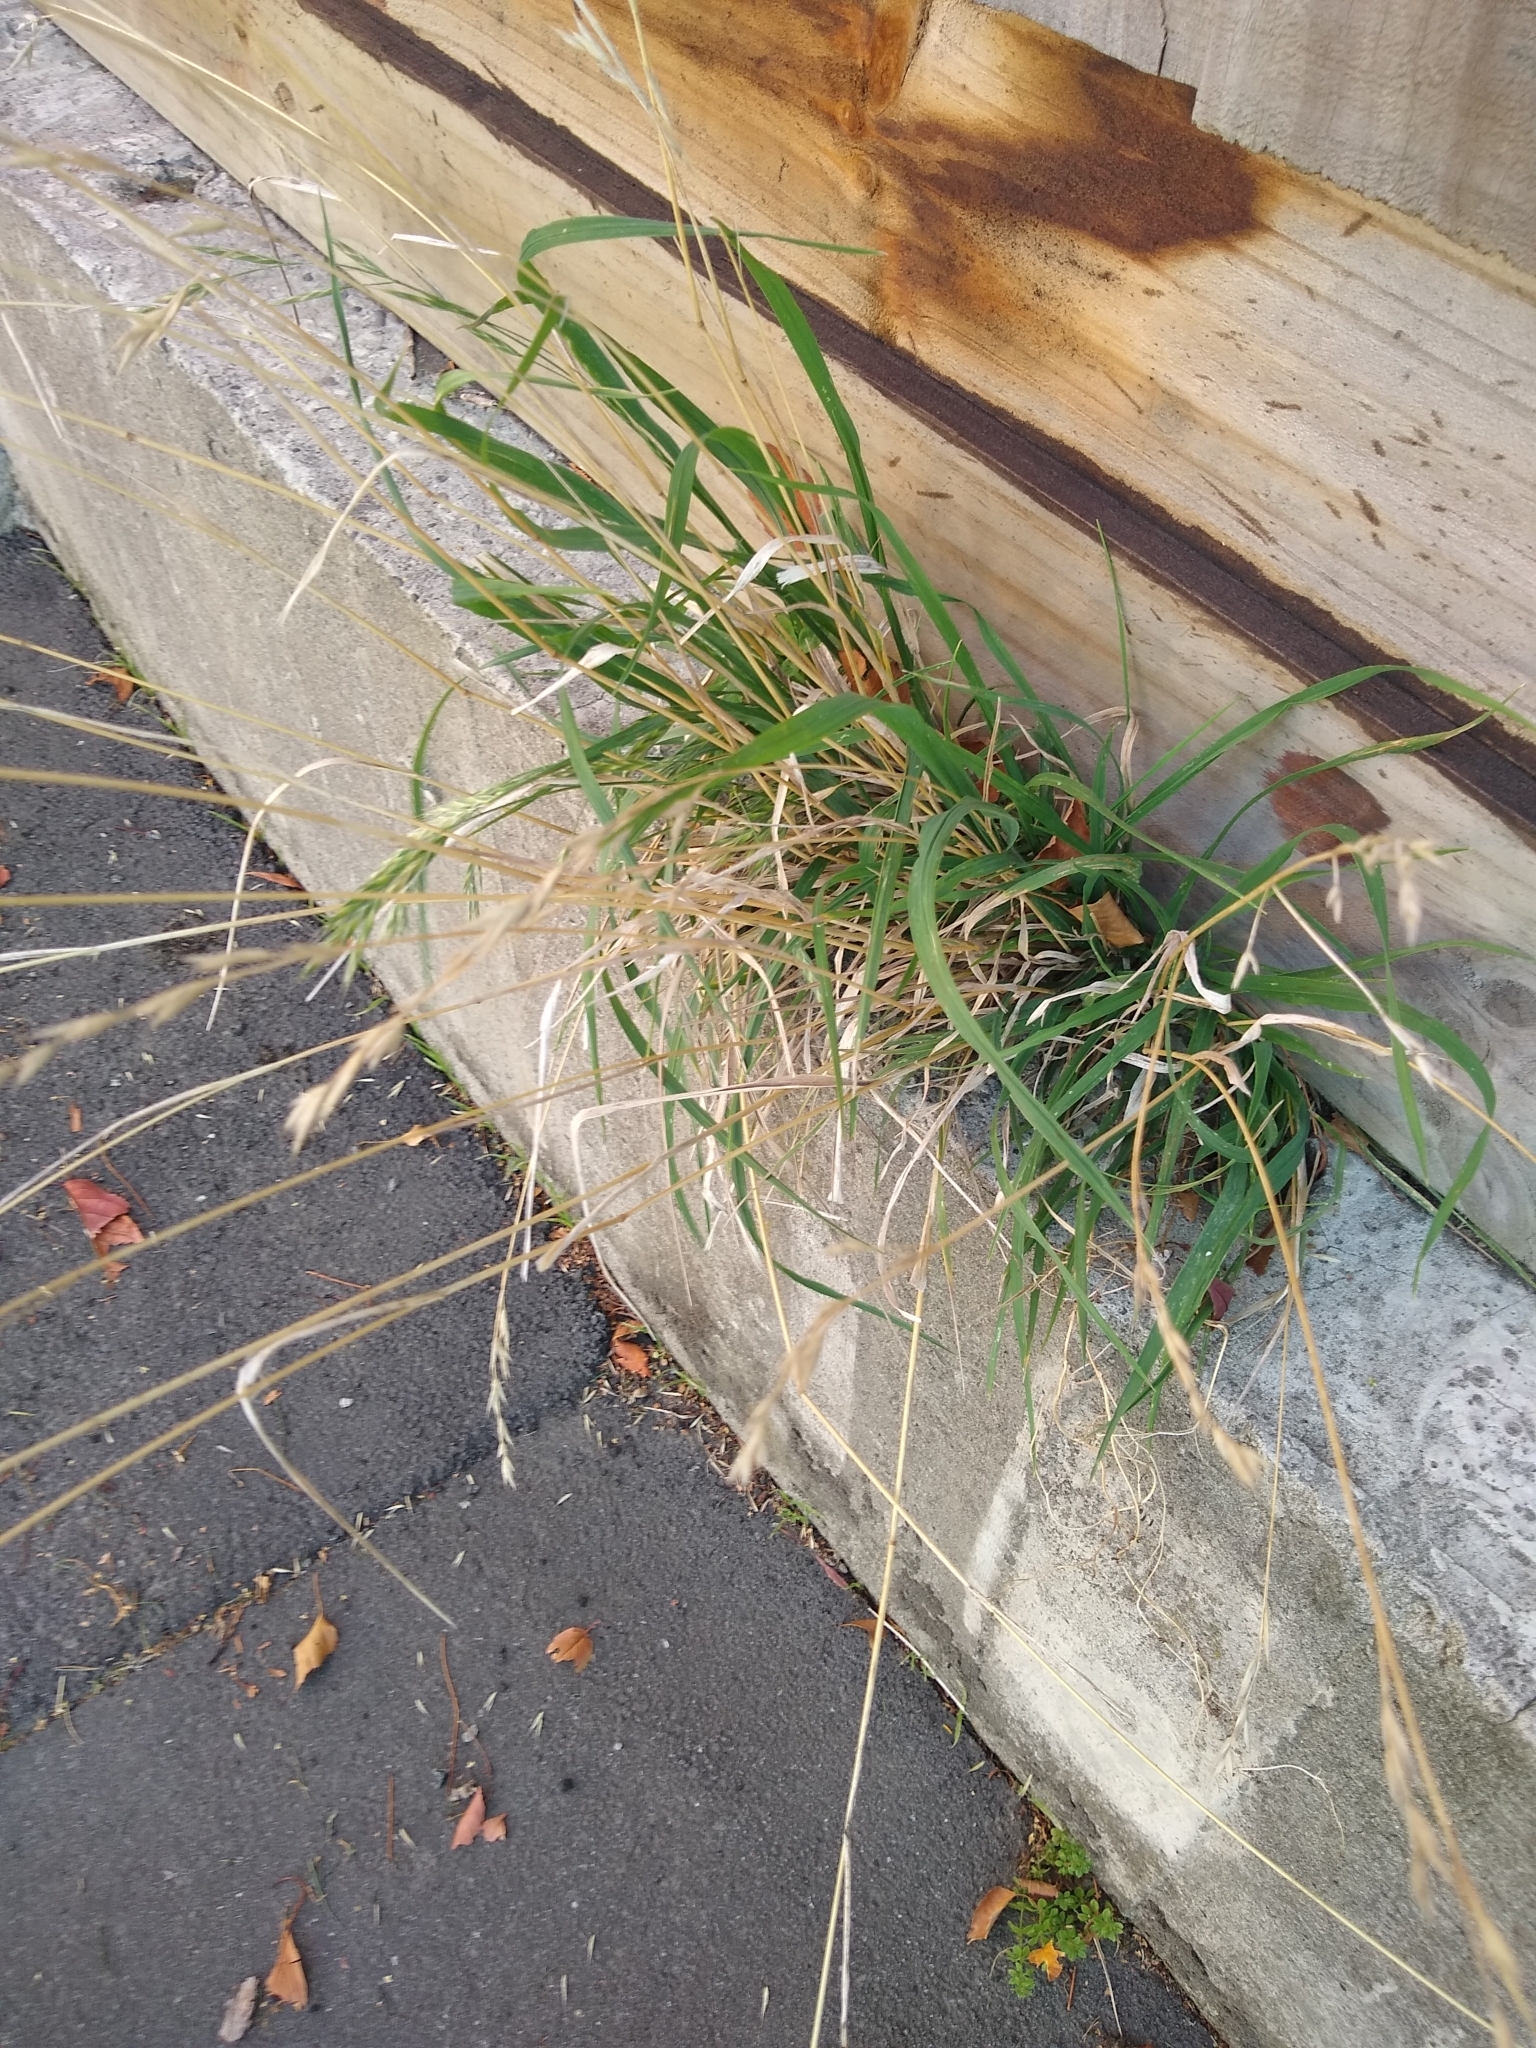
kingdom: Plantae
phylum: Tracheophyta
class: Liliopsida
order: Poales
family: Poaceae
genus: Bromus
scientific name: Bromus catharticus
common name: Rescuegrass
